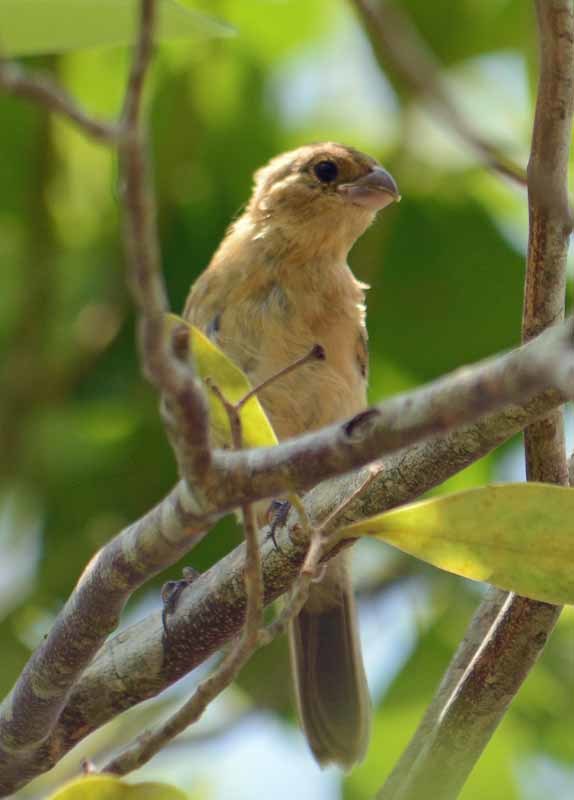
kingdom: Animalia
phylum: Chordata
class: Aves
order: Passeriformes
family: Thraupidae
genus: Sporophila
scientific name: Sporophila morelleti
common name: Morelet's seedeater
